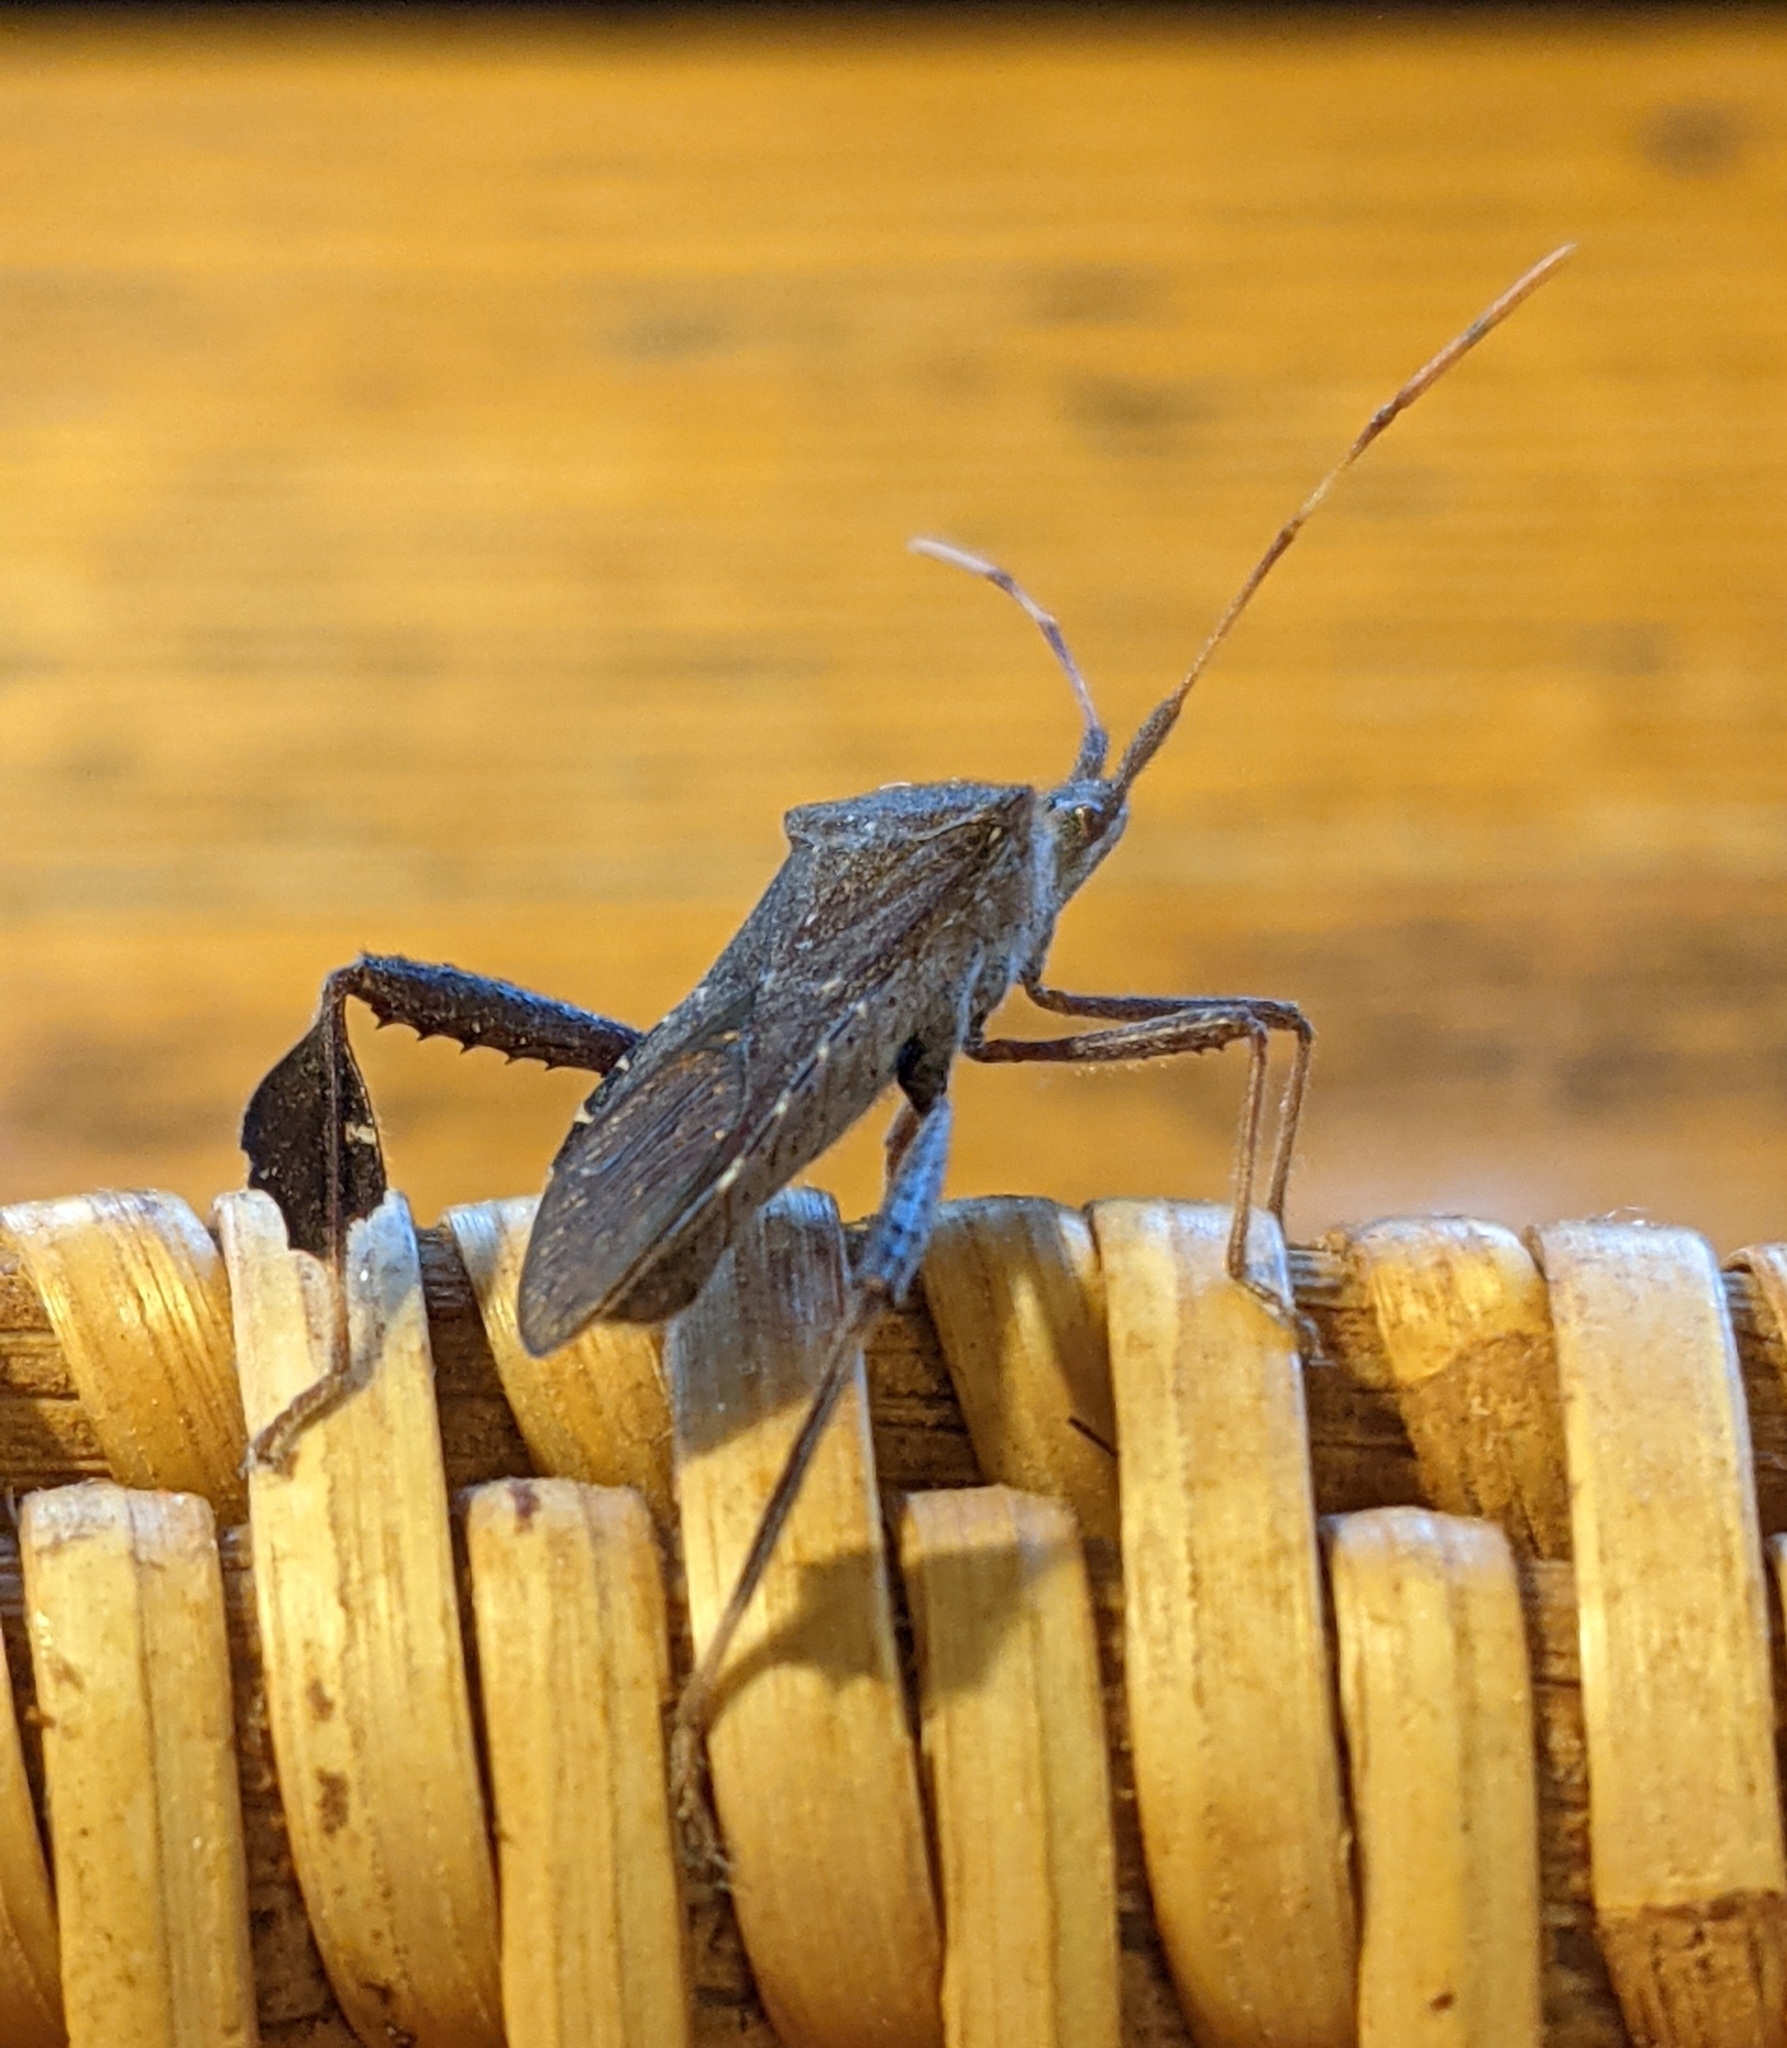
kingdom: Animalia
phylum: Arthropoda
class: Insecta
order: Hemiptera
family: Coreidae
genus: Leptoglossus
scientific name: Leptoglossus oppositus
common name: Northern leaf-footed bug
